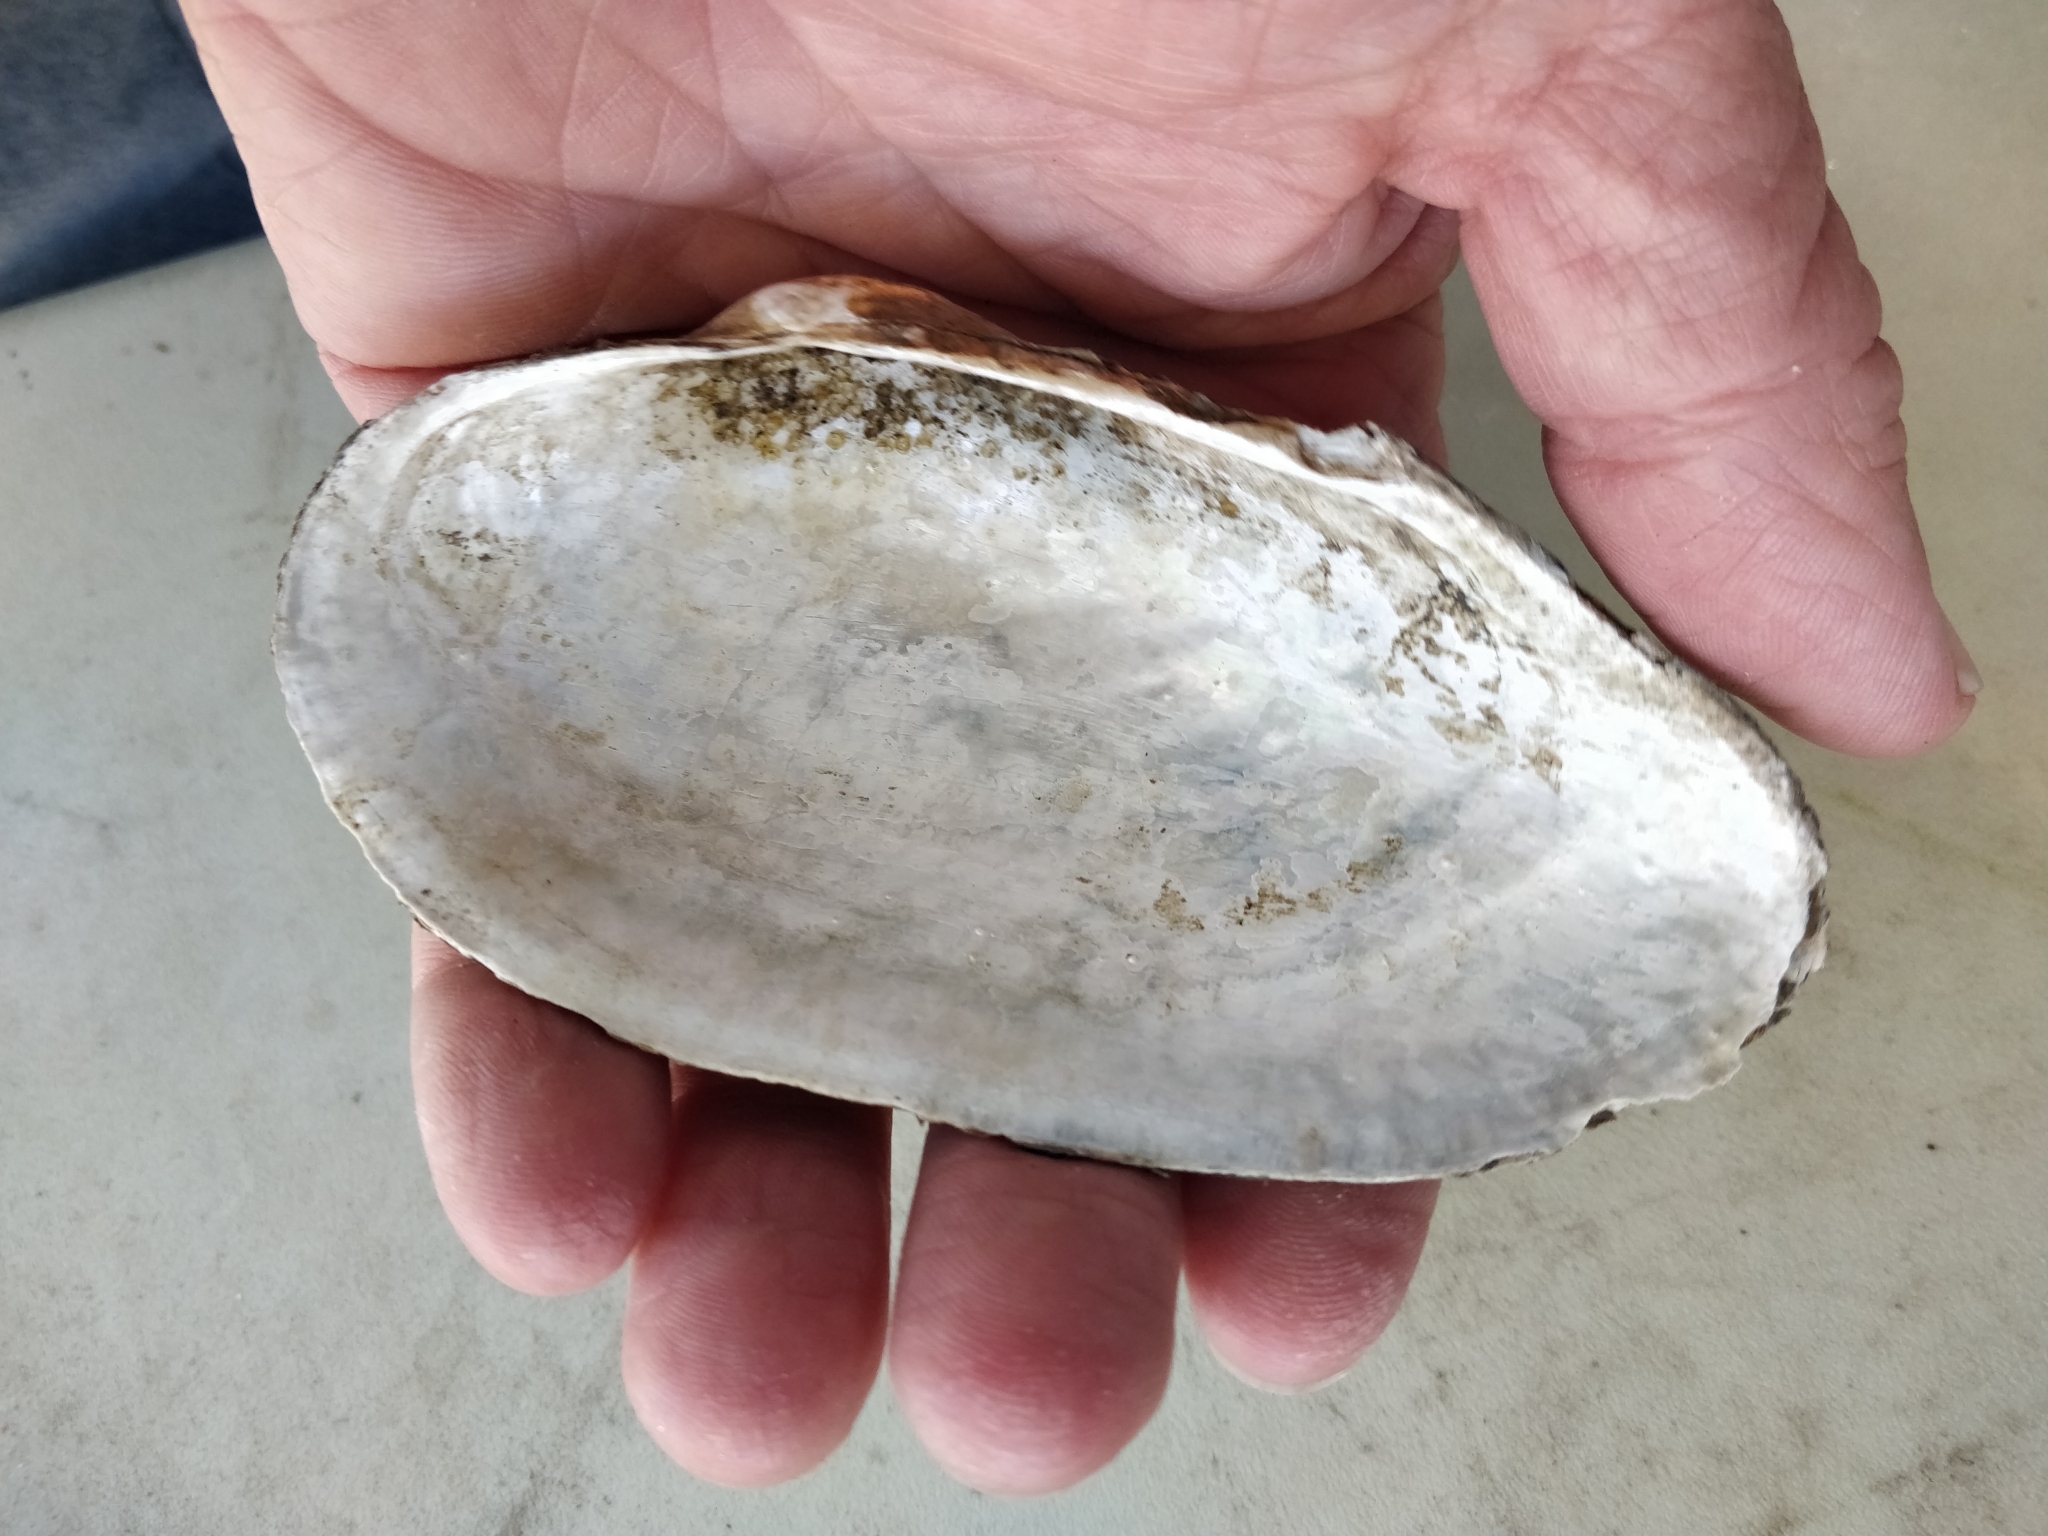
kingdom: Animalia
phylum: Mollusca
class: Bivalvia
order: Unionida
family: Unionidae
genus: Pyganodon
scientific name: Pyganodon grandis
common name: Giant floater
